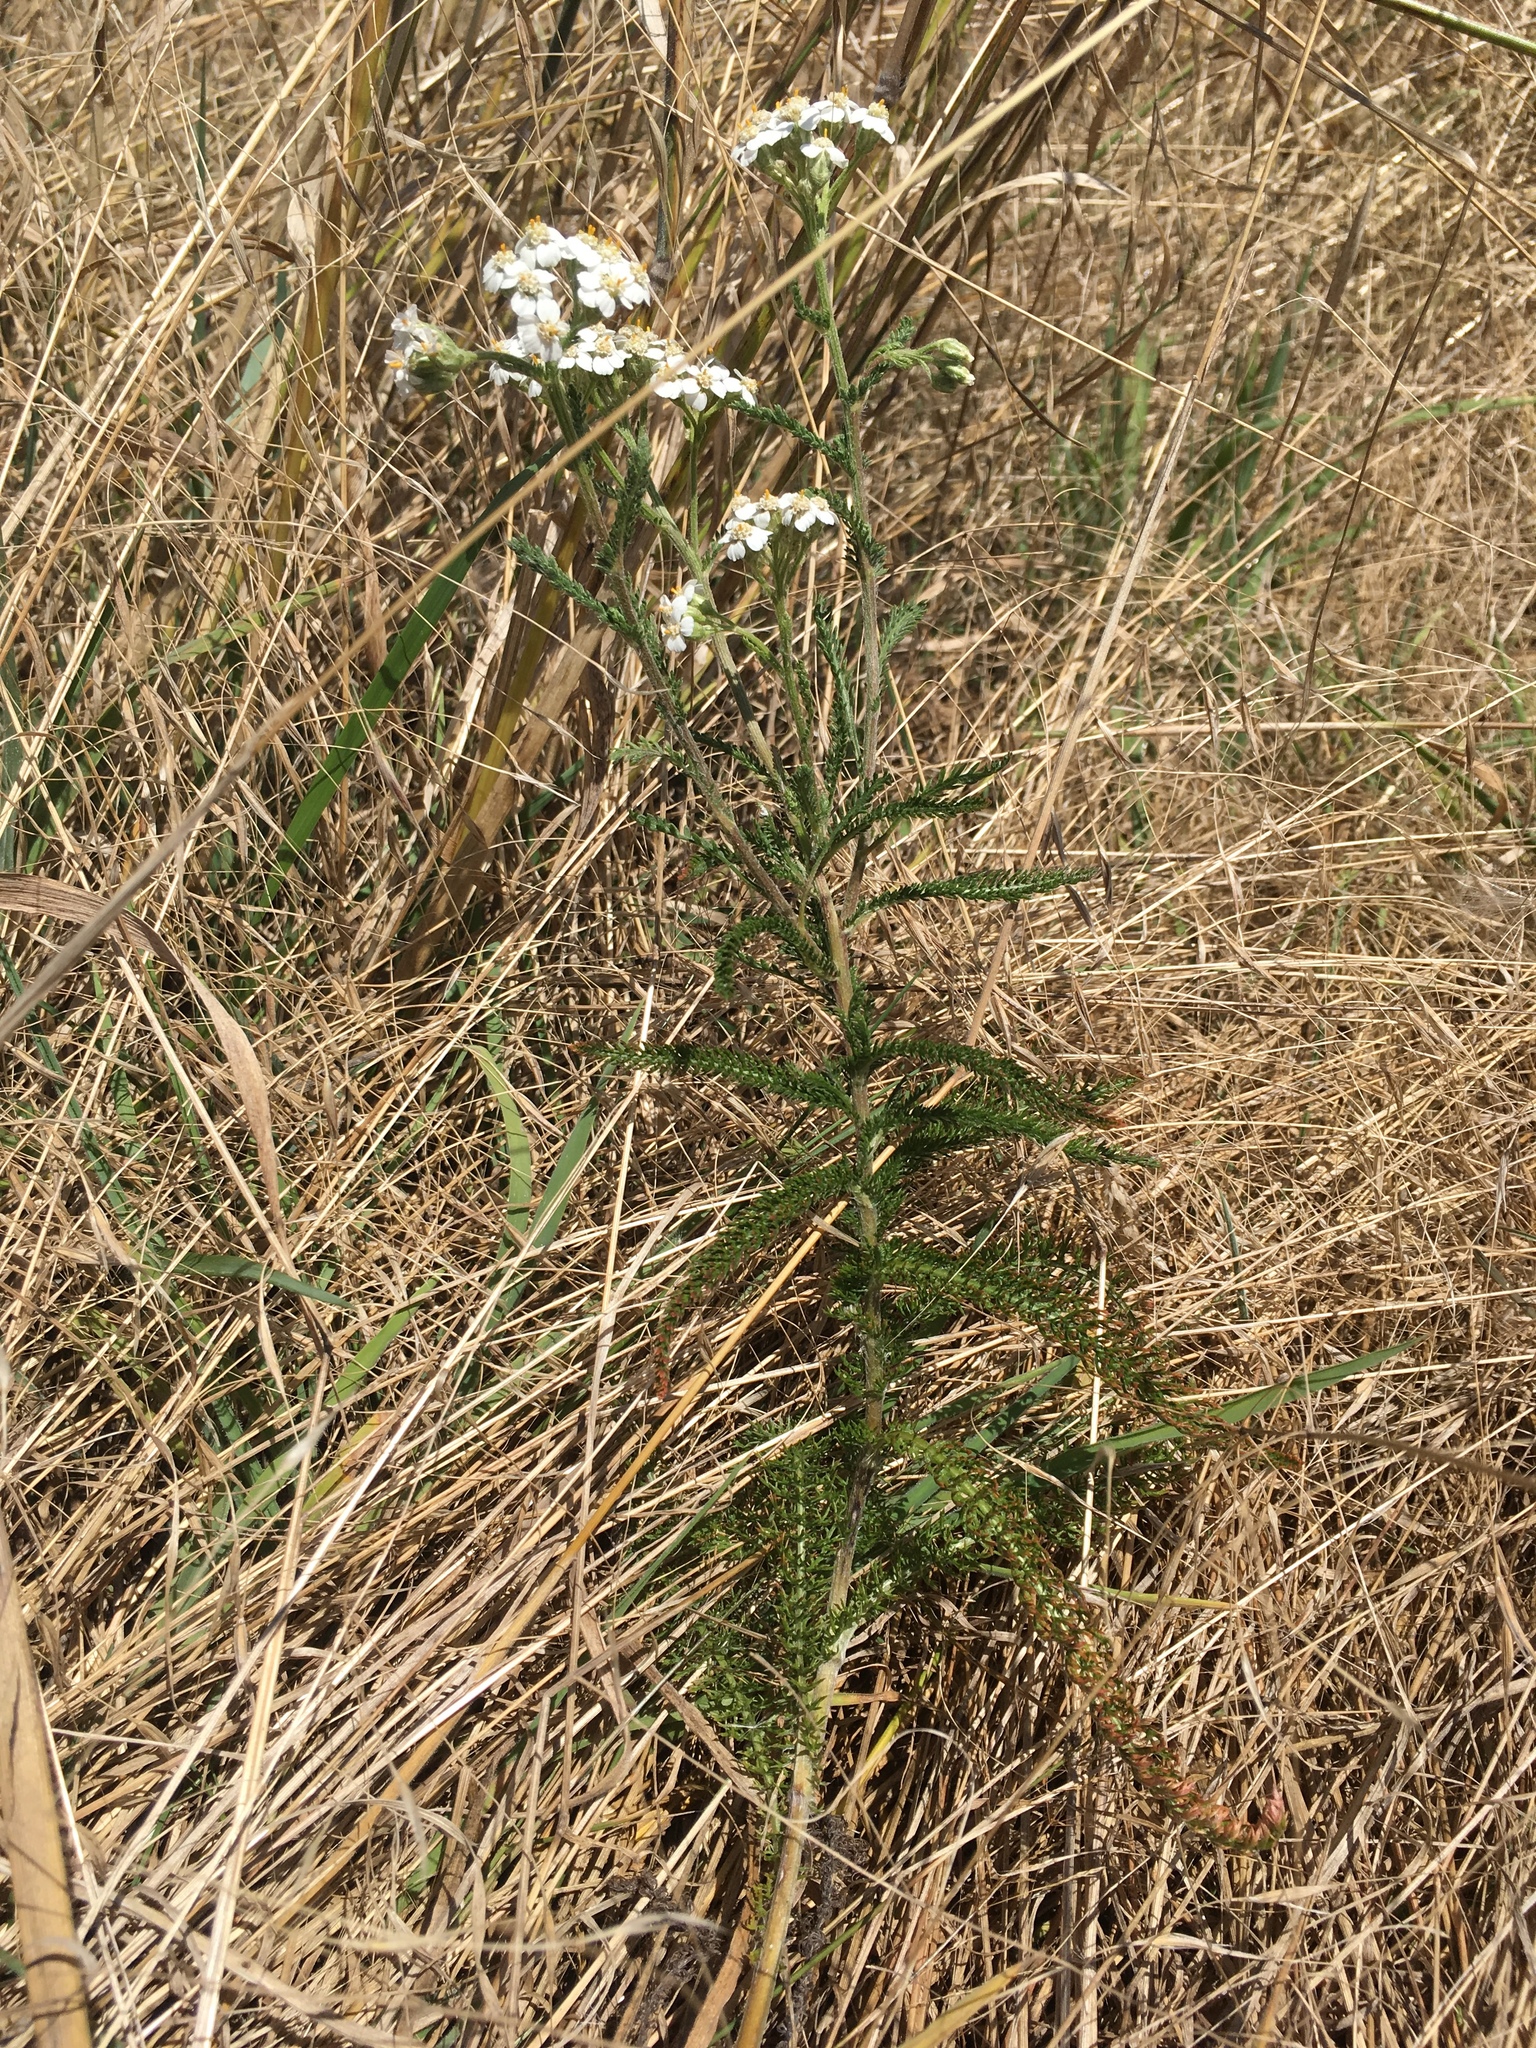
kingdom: Plantae
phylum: Tracheophyta
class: Magnoliopsida
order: Asterales
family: Asteraceae
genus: Achillea
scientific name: Achillea millefolium
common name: Yarrow
